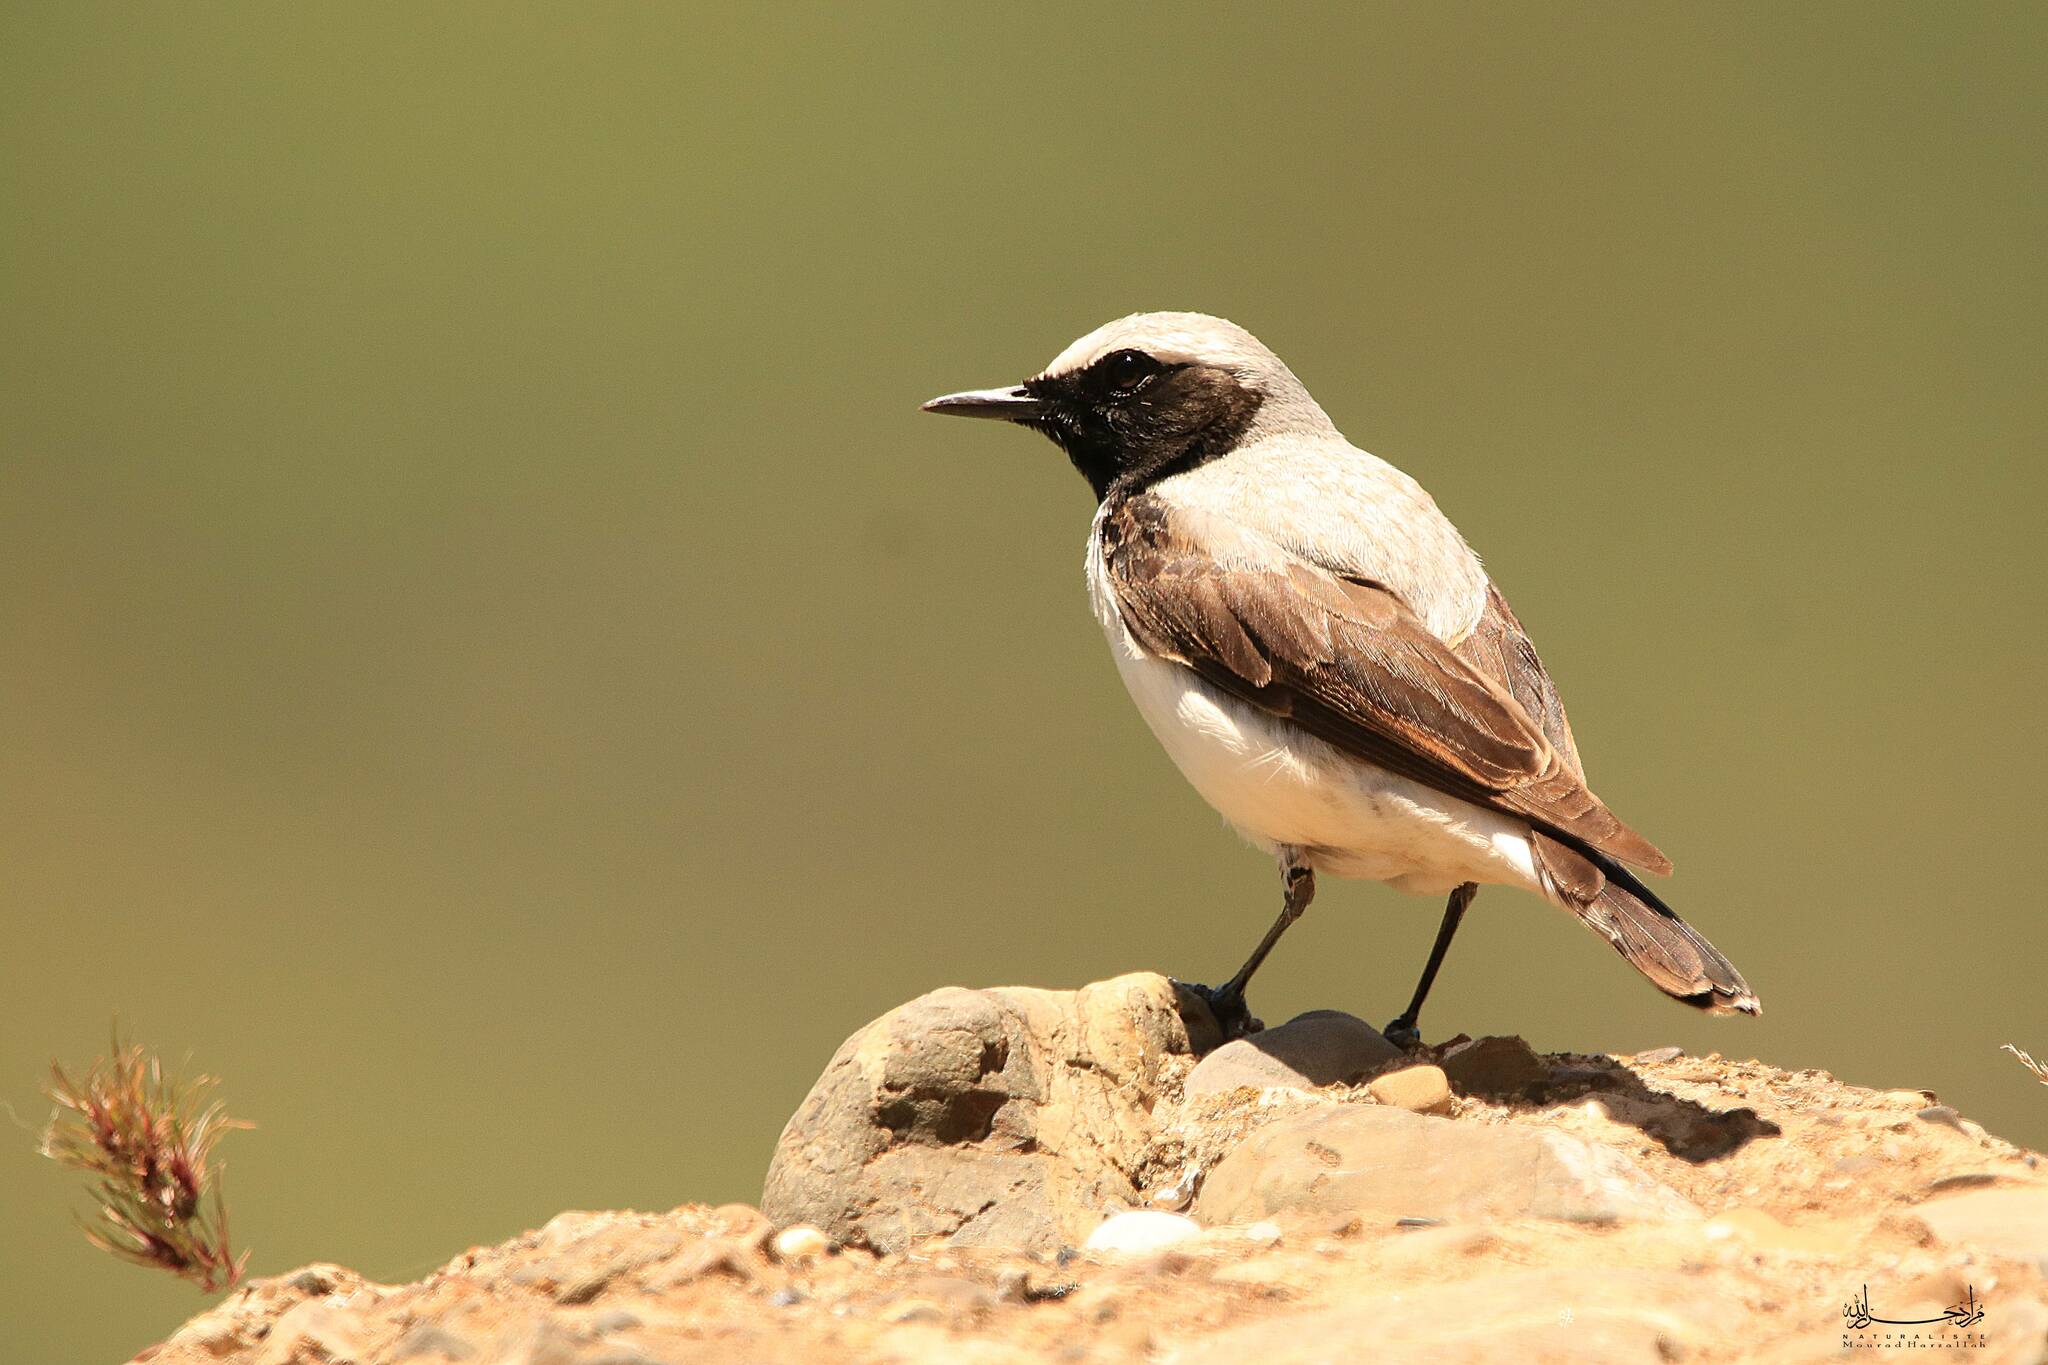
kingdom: Animalia
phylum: Chordata
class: Aves
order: Passeriformes
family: Muscicapidae
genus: Oenanthe
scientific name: Oenanthe oenanthe
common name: Northern wheatear
